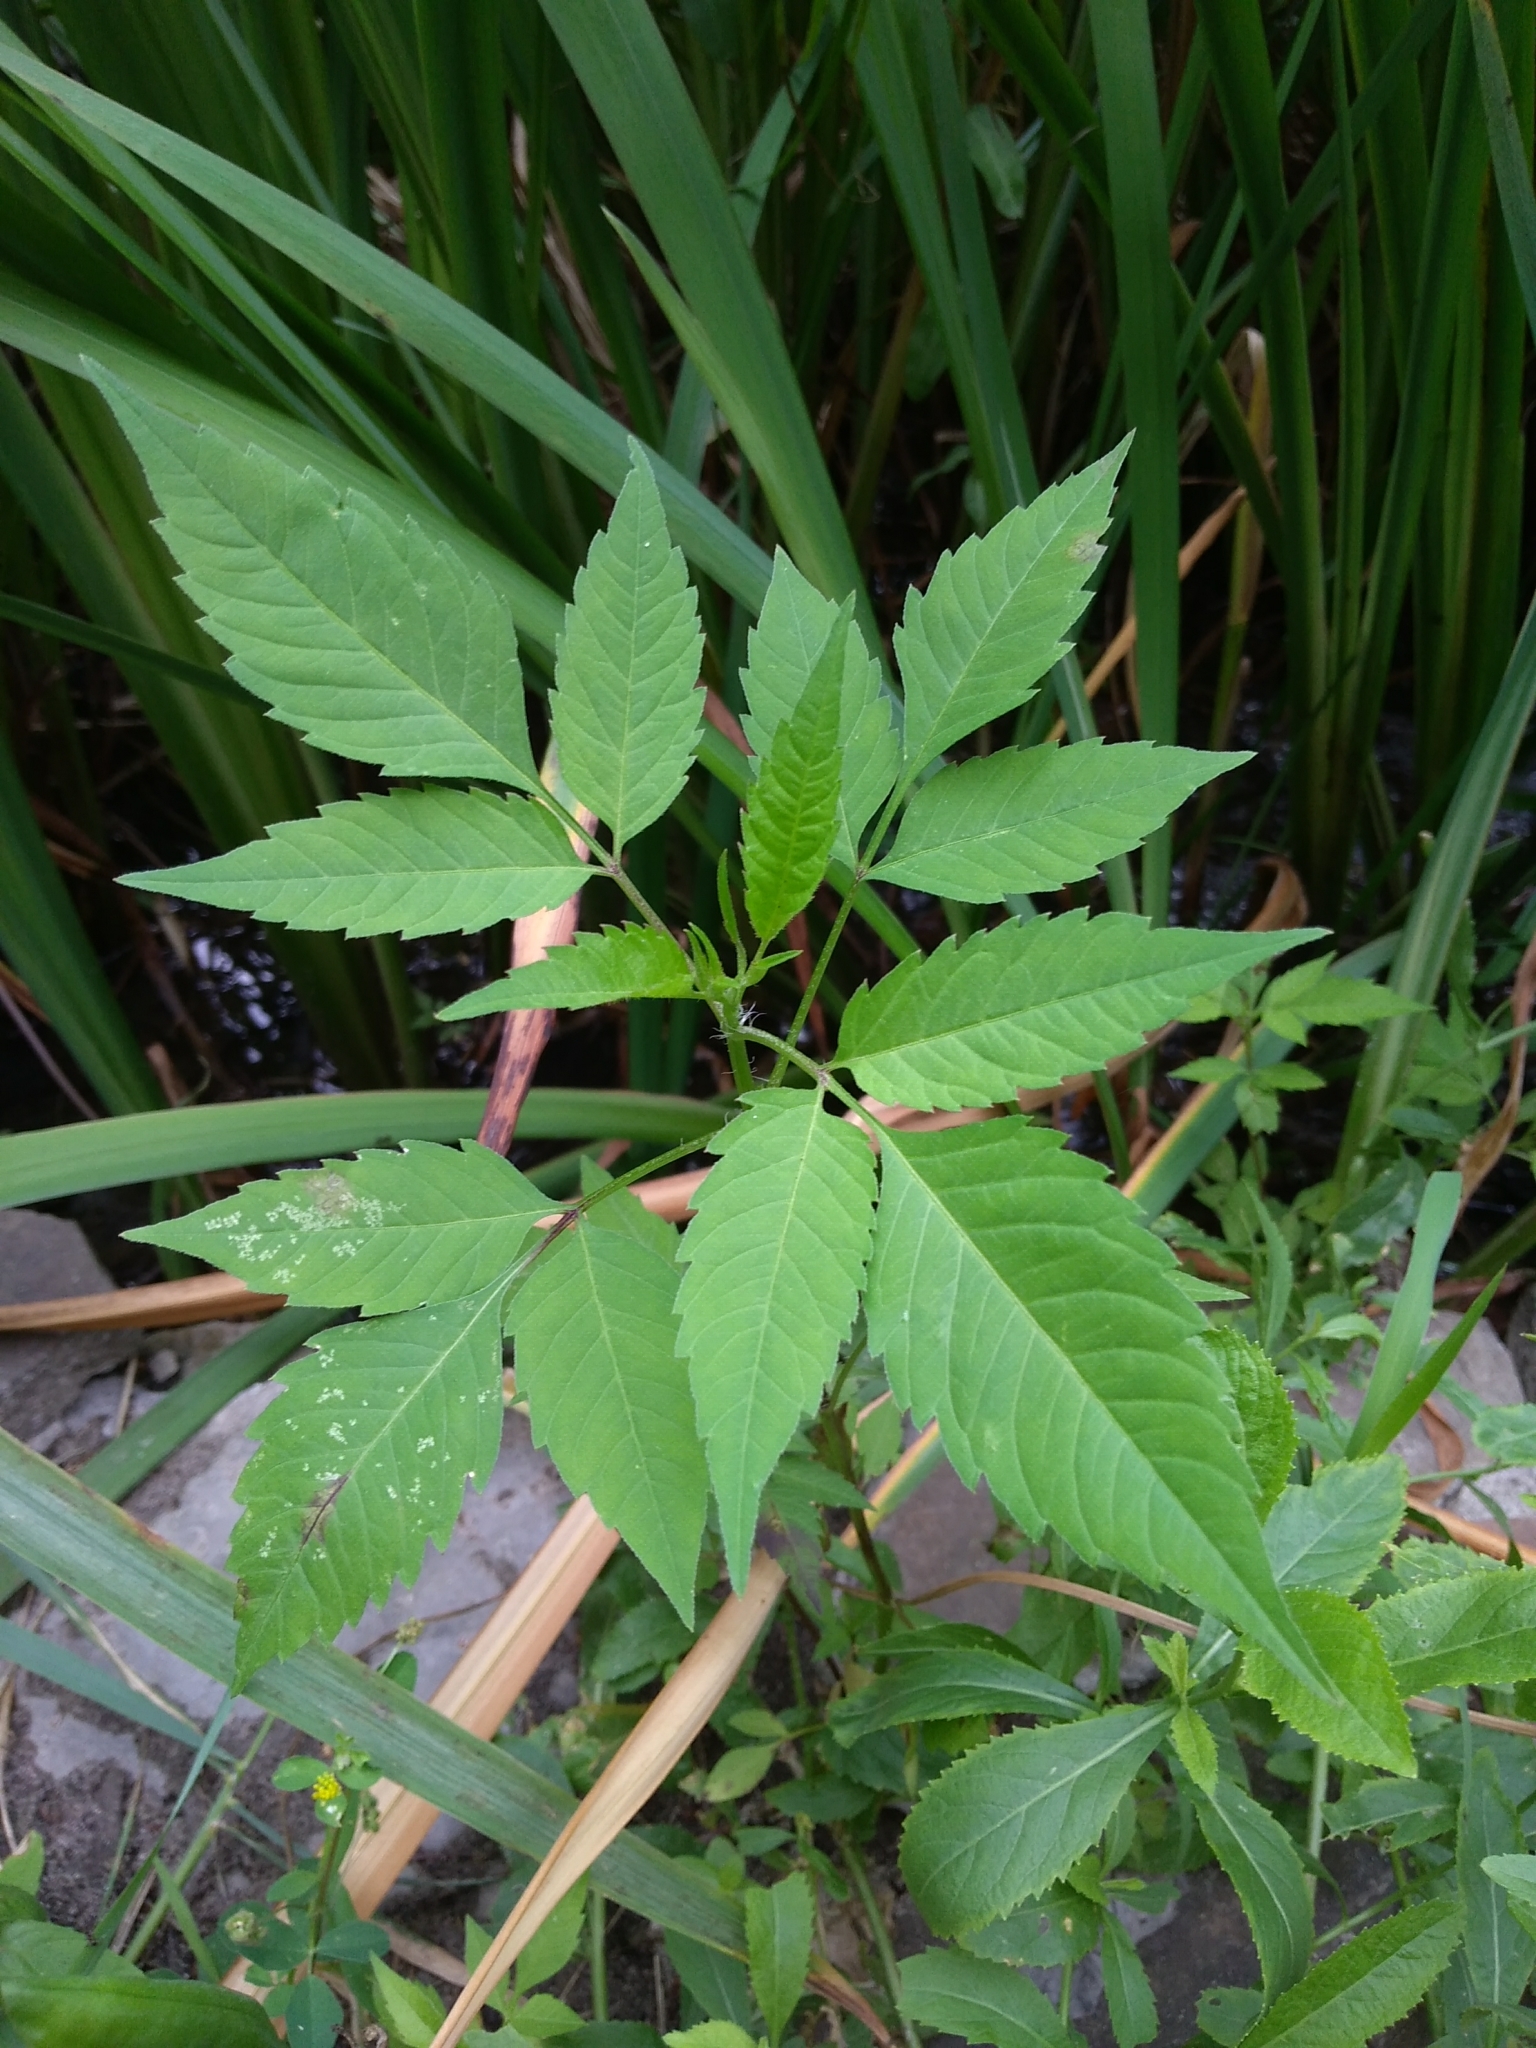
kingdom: Plantae
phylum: Tracheophyta
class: Magnoliopsida
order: Asterales
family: Asteraceae
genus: Bidens
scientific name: Bidens frondosa
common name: Beggarticks
